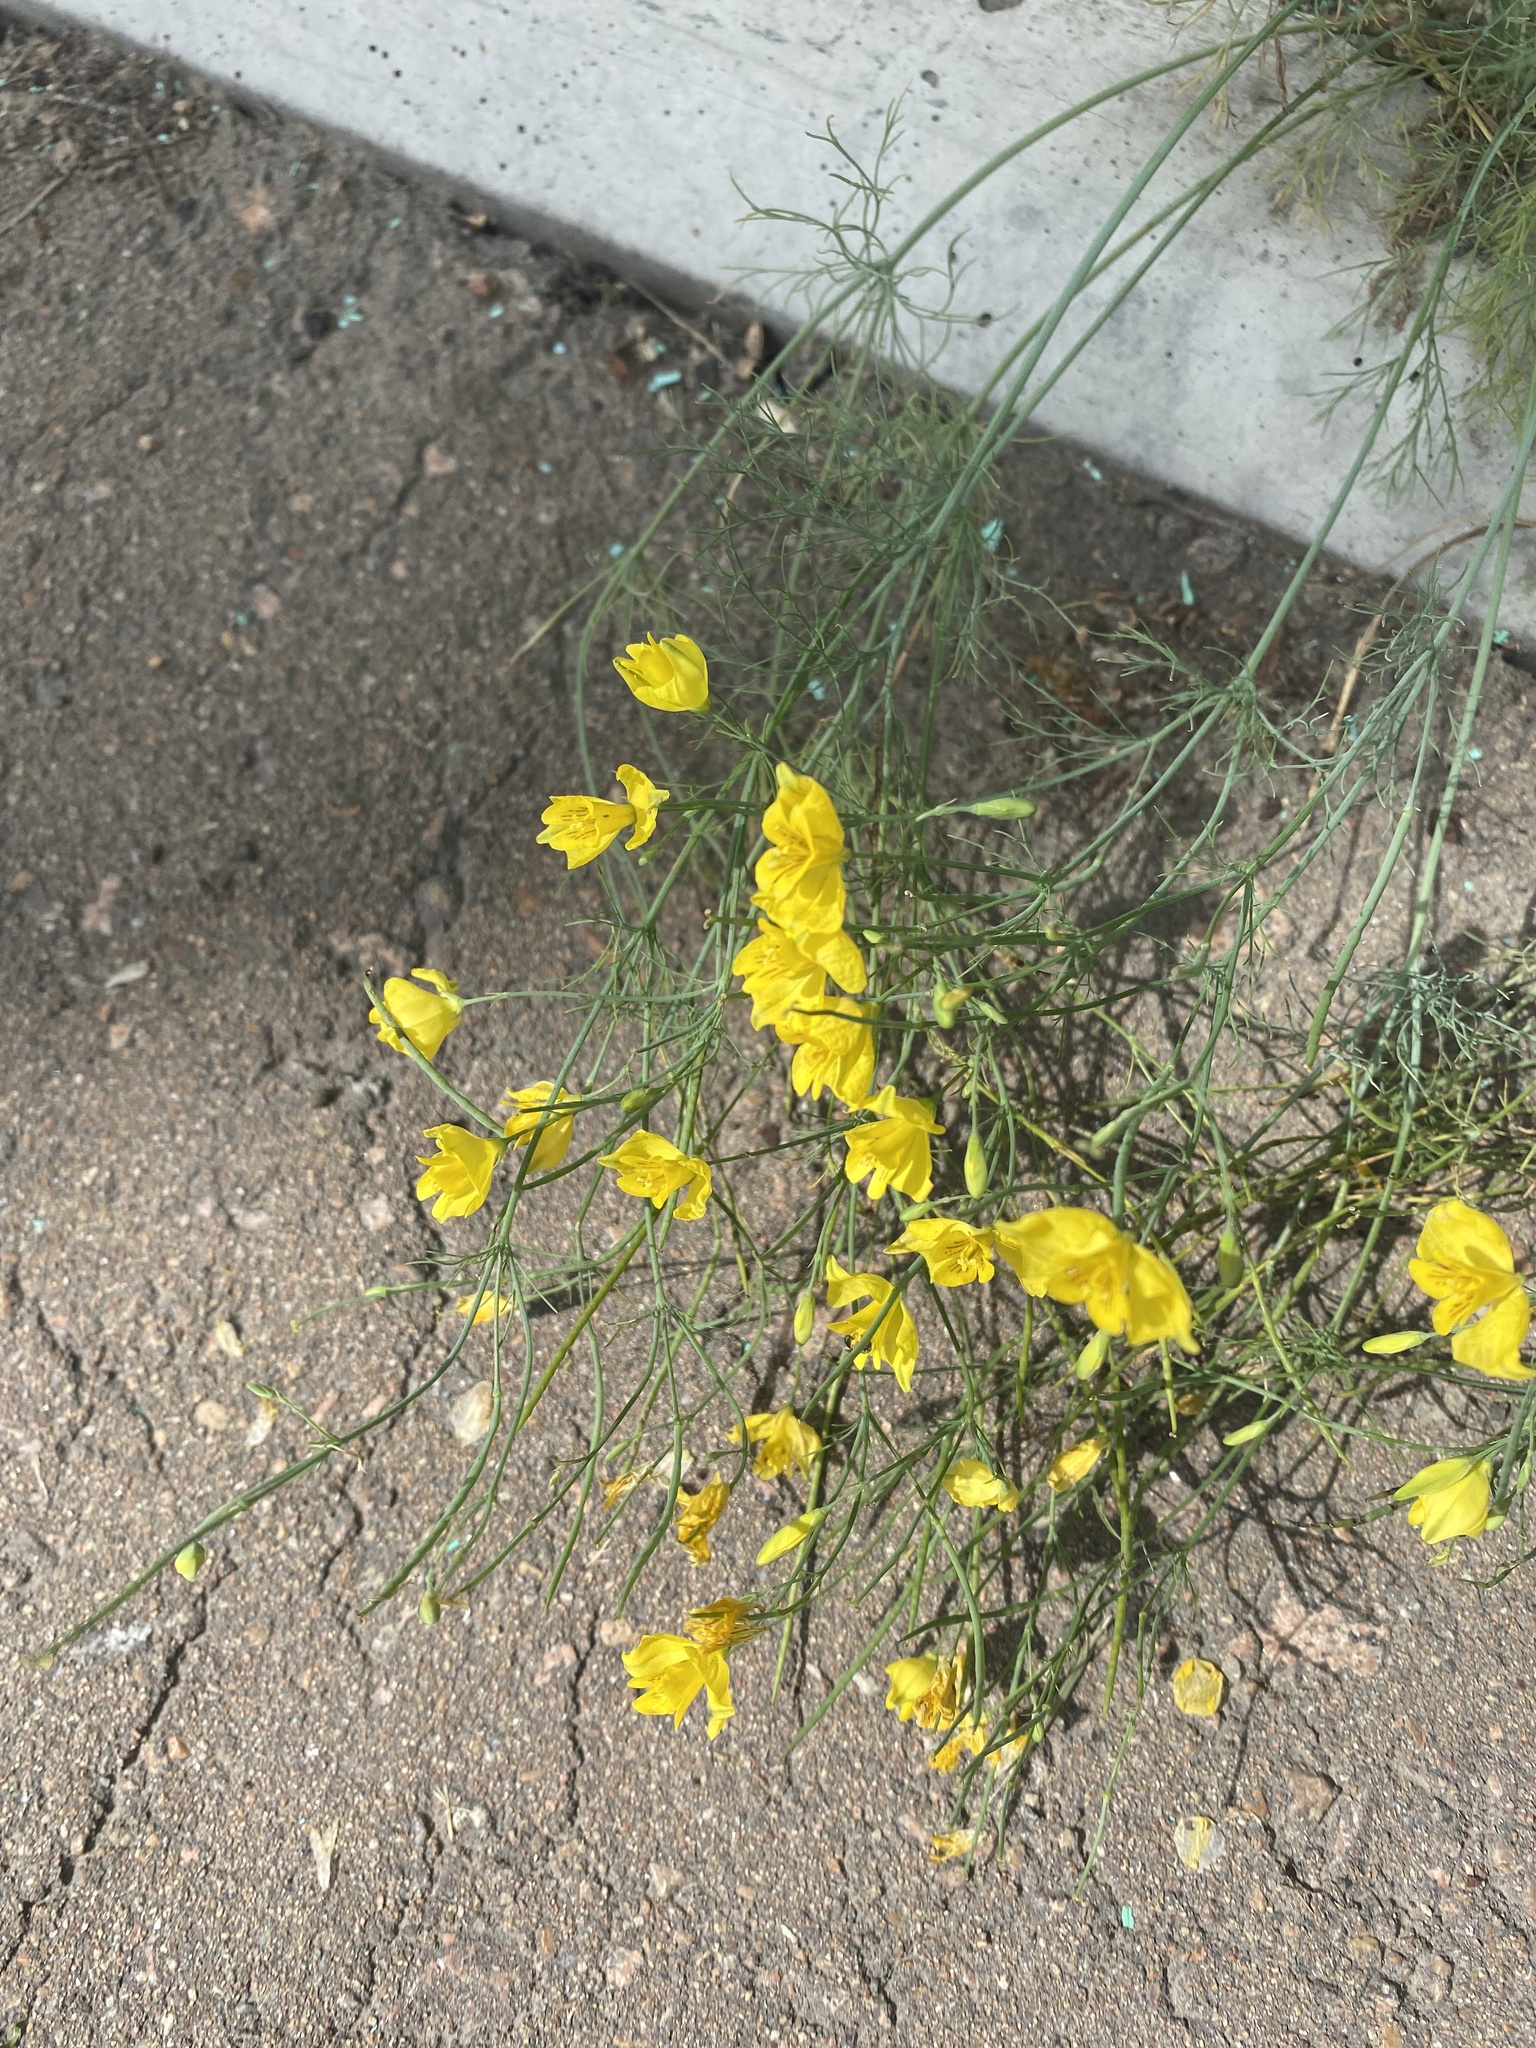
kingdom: Plantae
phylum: Tracheophyta
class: Magnoliopsida
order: Ranunculales
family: Papaveraceae
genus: Hypecoum
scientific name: Hypecoum erectum
